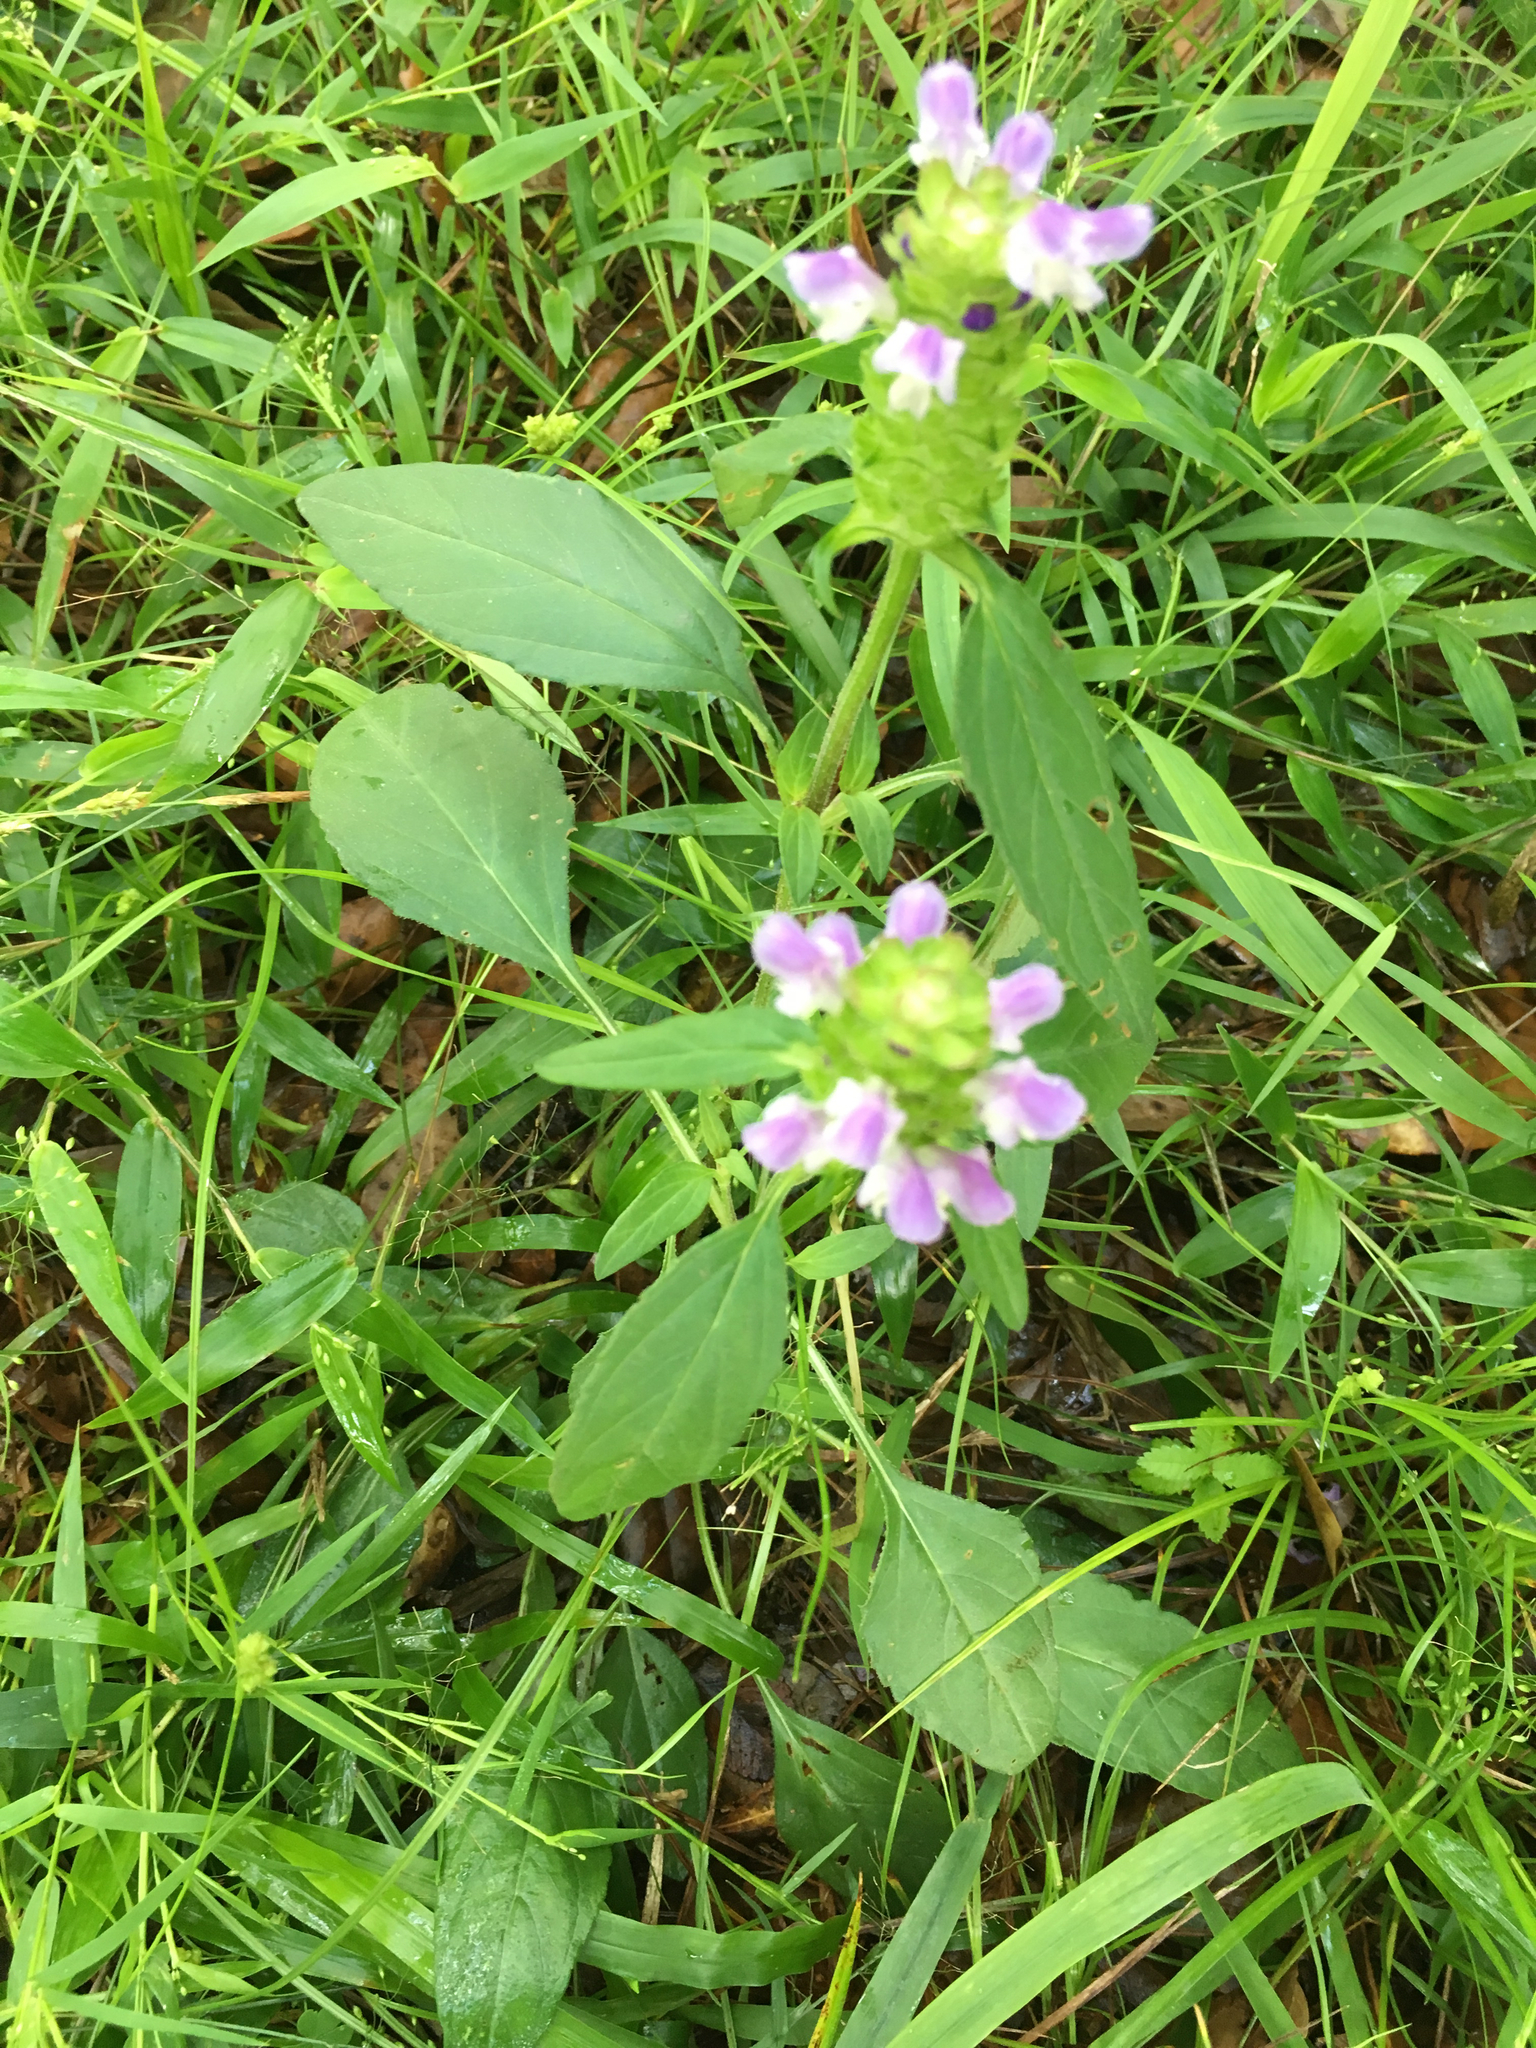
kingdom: Plantae
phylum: Tracheophyta
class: Magnoliopsida
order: Lamiales
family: Lamiaceae
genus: Prunella
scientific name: Prunella vulgaris
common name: Heal-all
